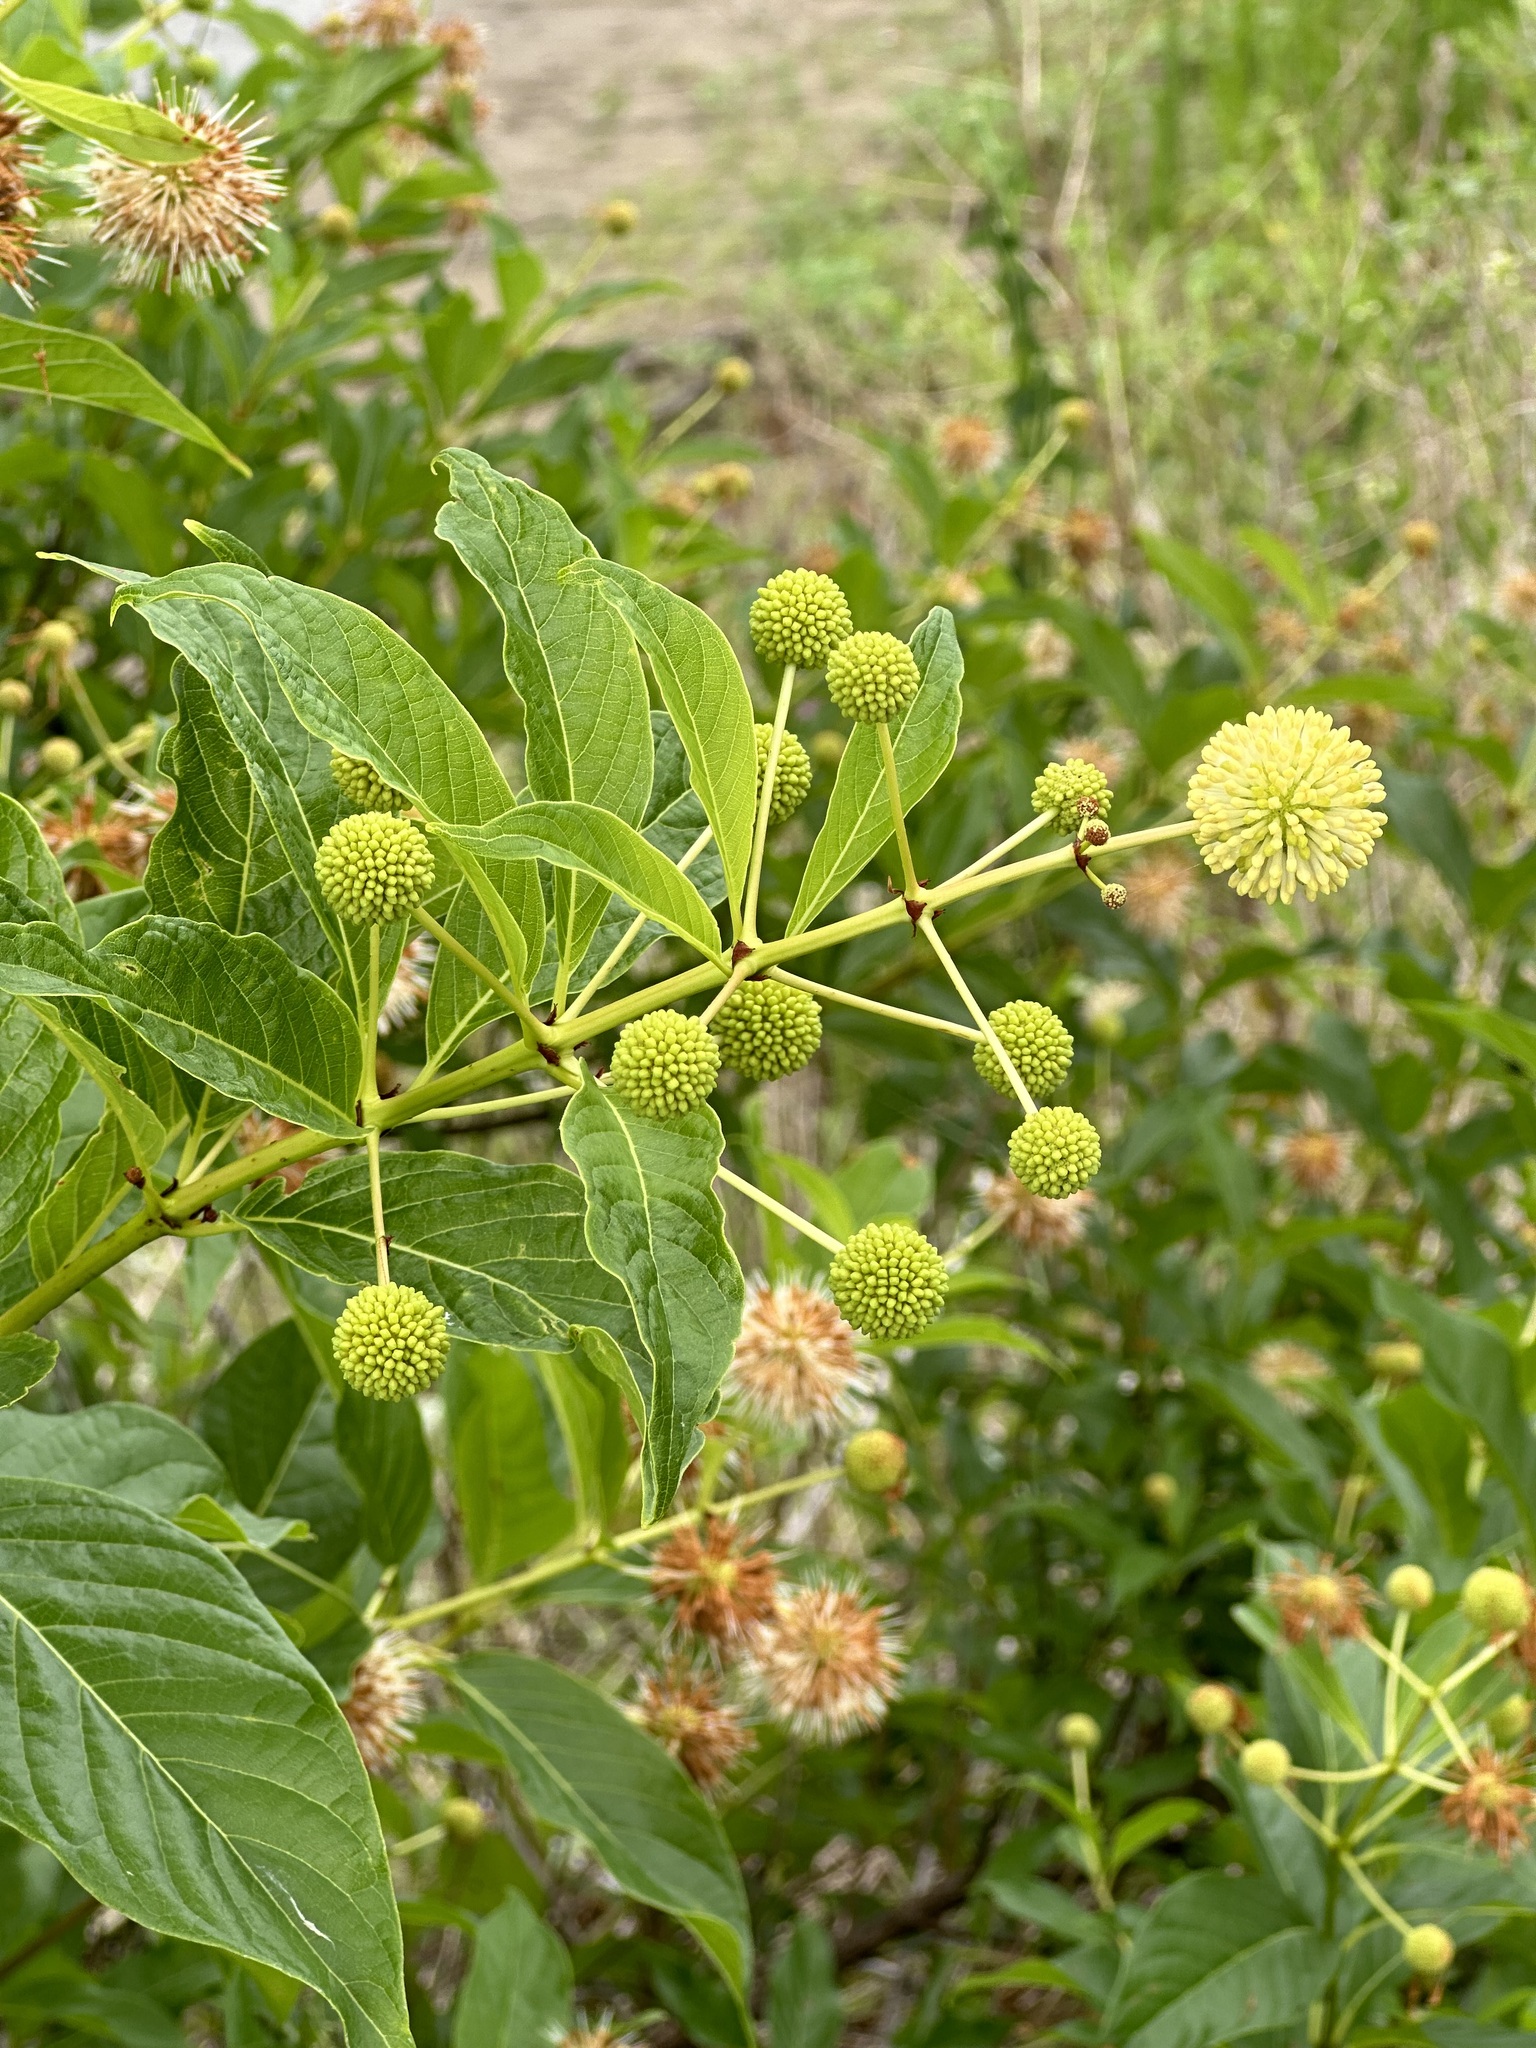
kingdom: Plantae
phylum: Tracheophyta
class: Magnoliopsida
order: Gentianales
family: Rubiaceae
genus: Cephalanthus
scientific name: Cephalanthus occidentalis
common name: Button-willow
